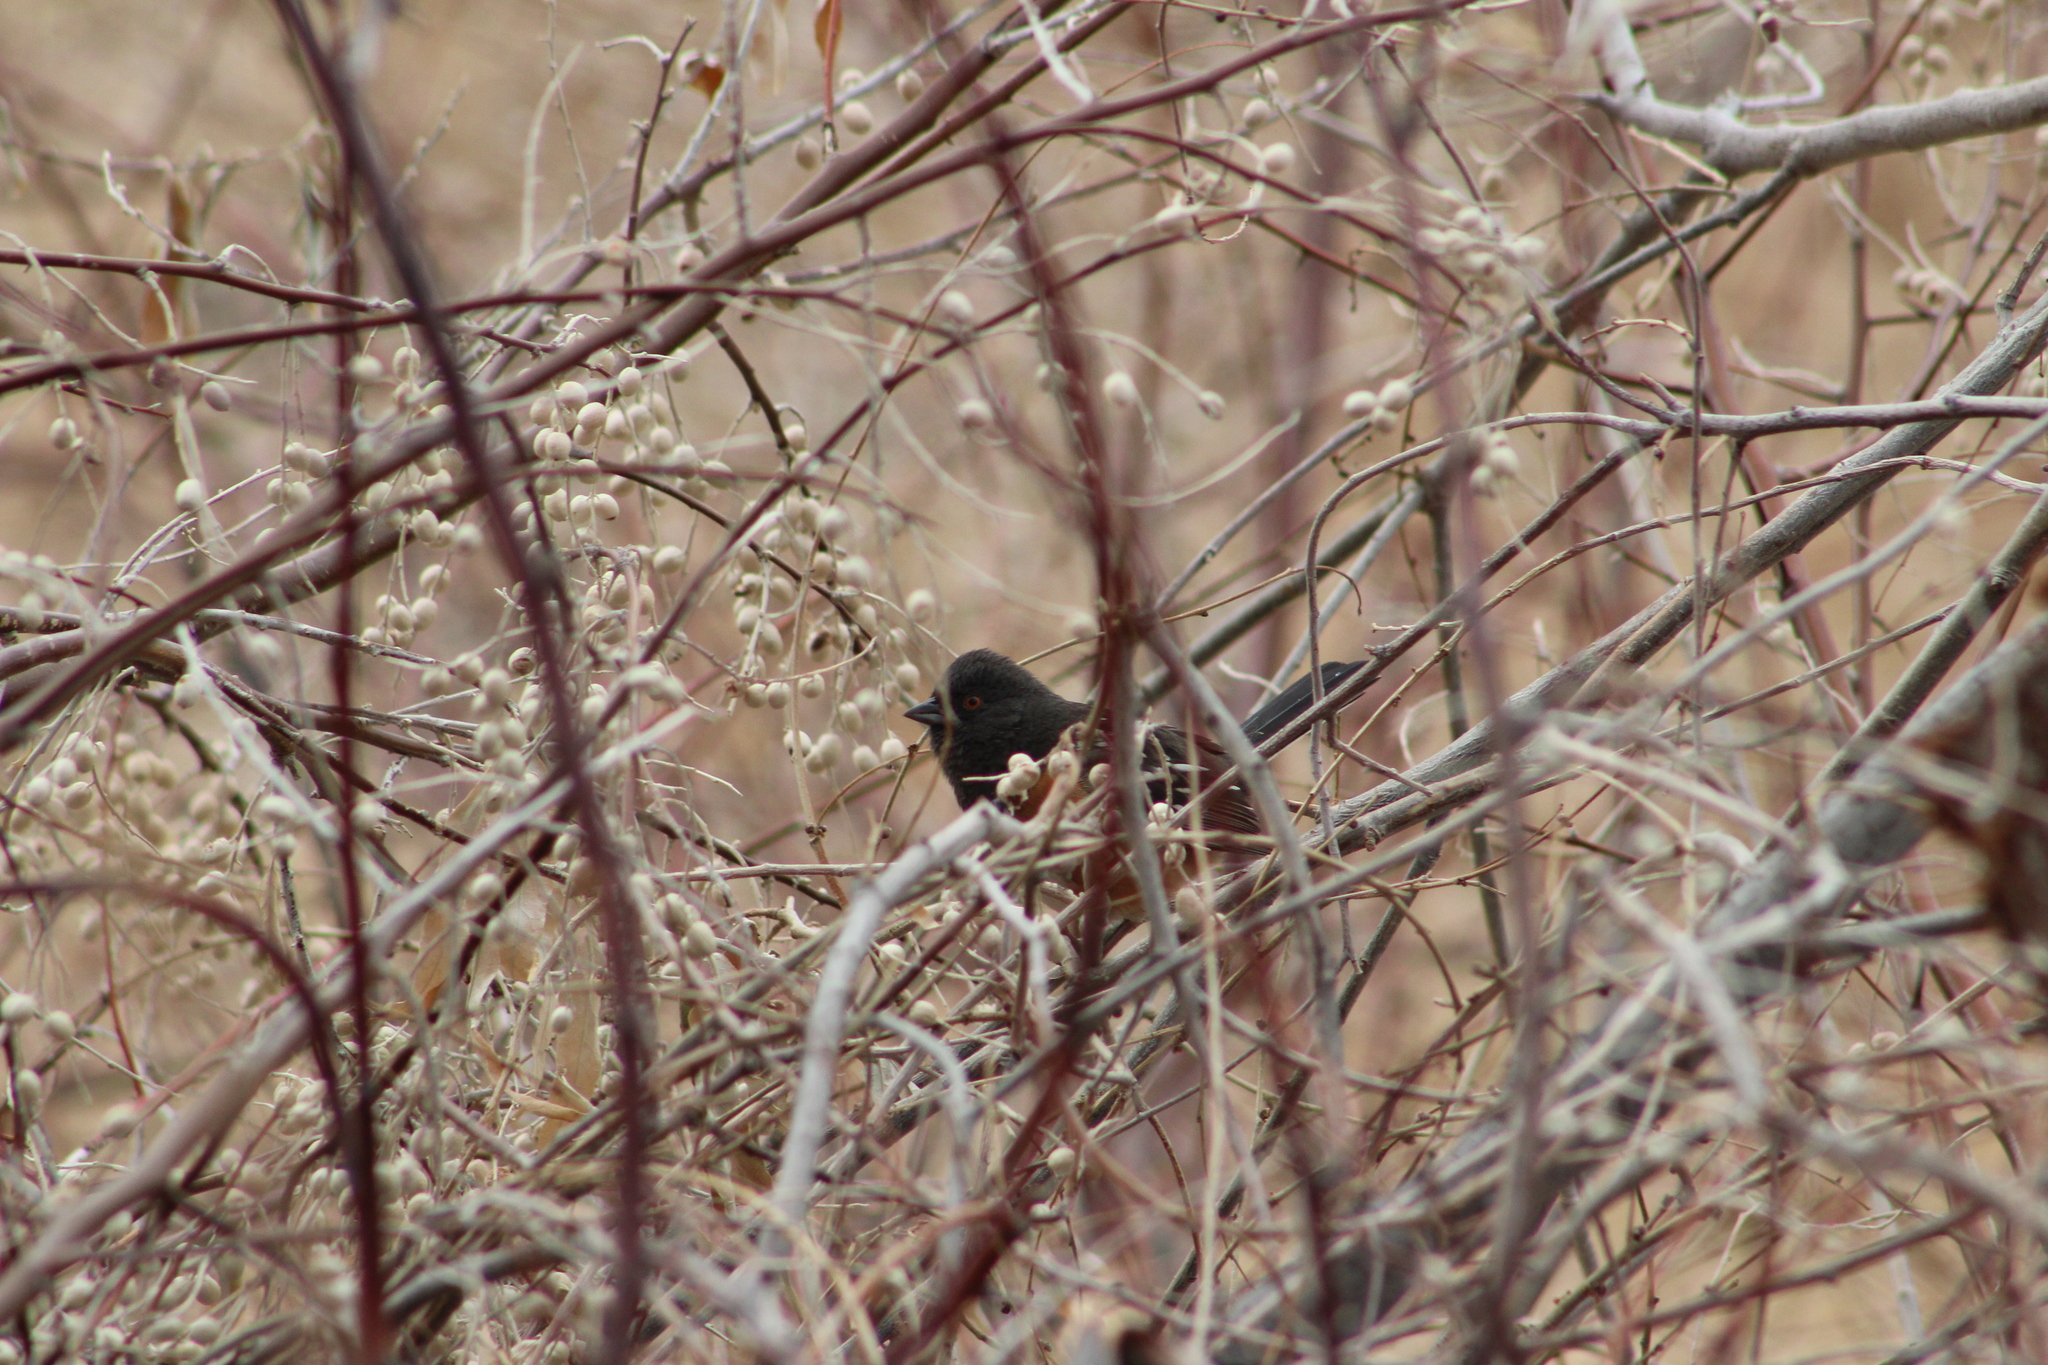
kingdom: Animalia
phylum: Chordata
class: Aves
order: Passeriformes
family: Passerellidae
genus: Pipilo
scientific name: Pipilo maculatus
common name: Spotted towhee
